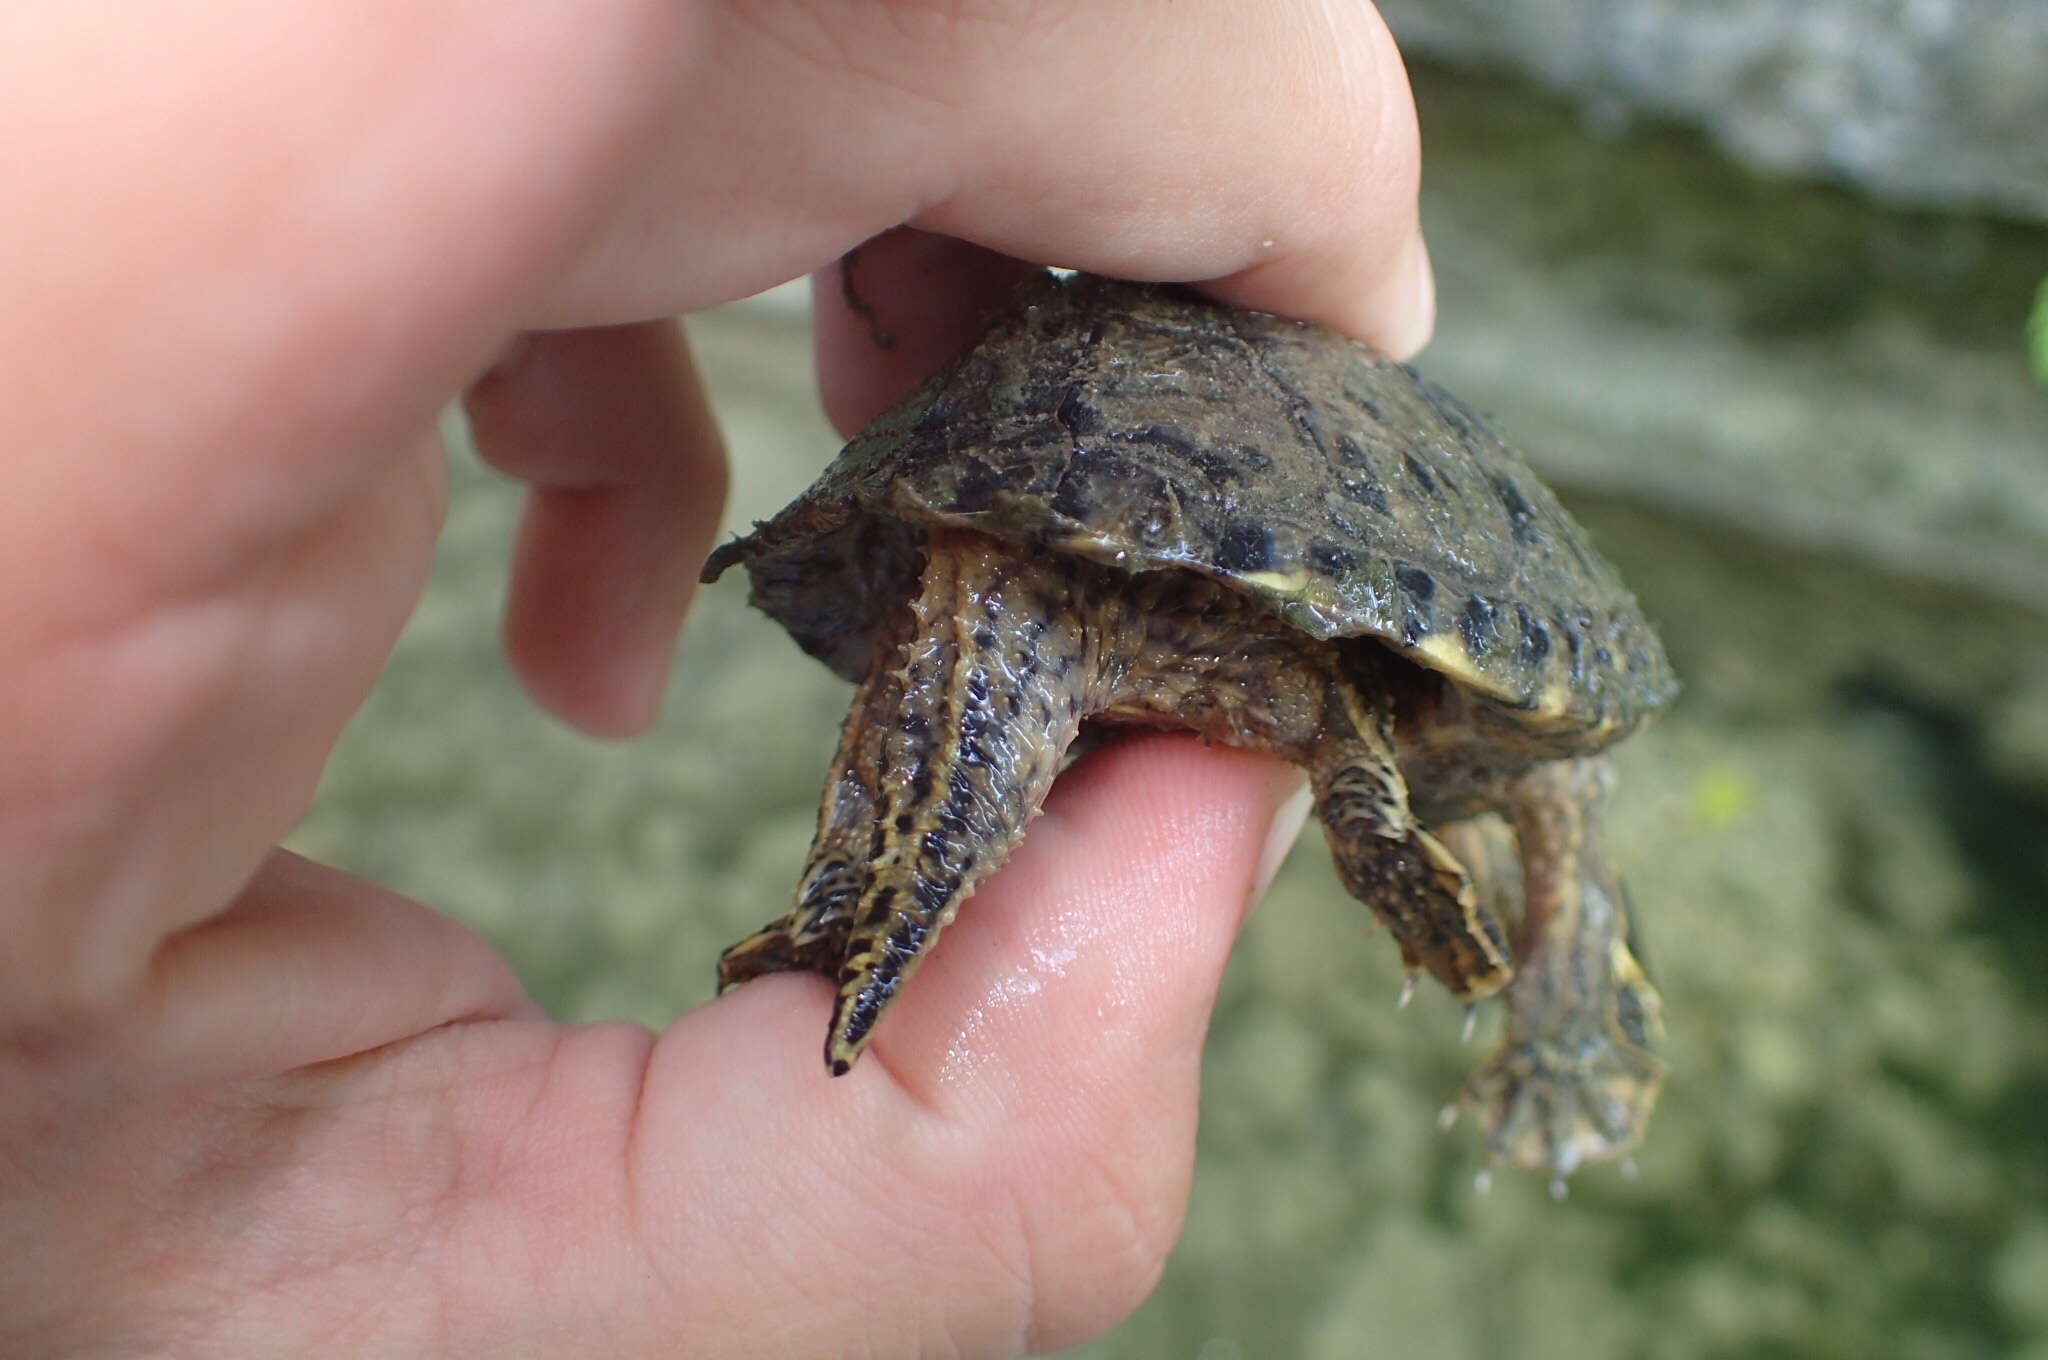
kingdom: Animalia
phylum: Chordata
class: Testudines
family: Kinosternidae
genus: Sternotherus
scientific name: Sternotherus odoratus
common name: Common musk turtle
